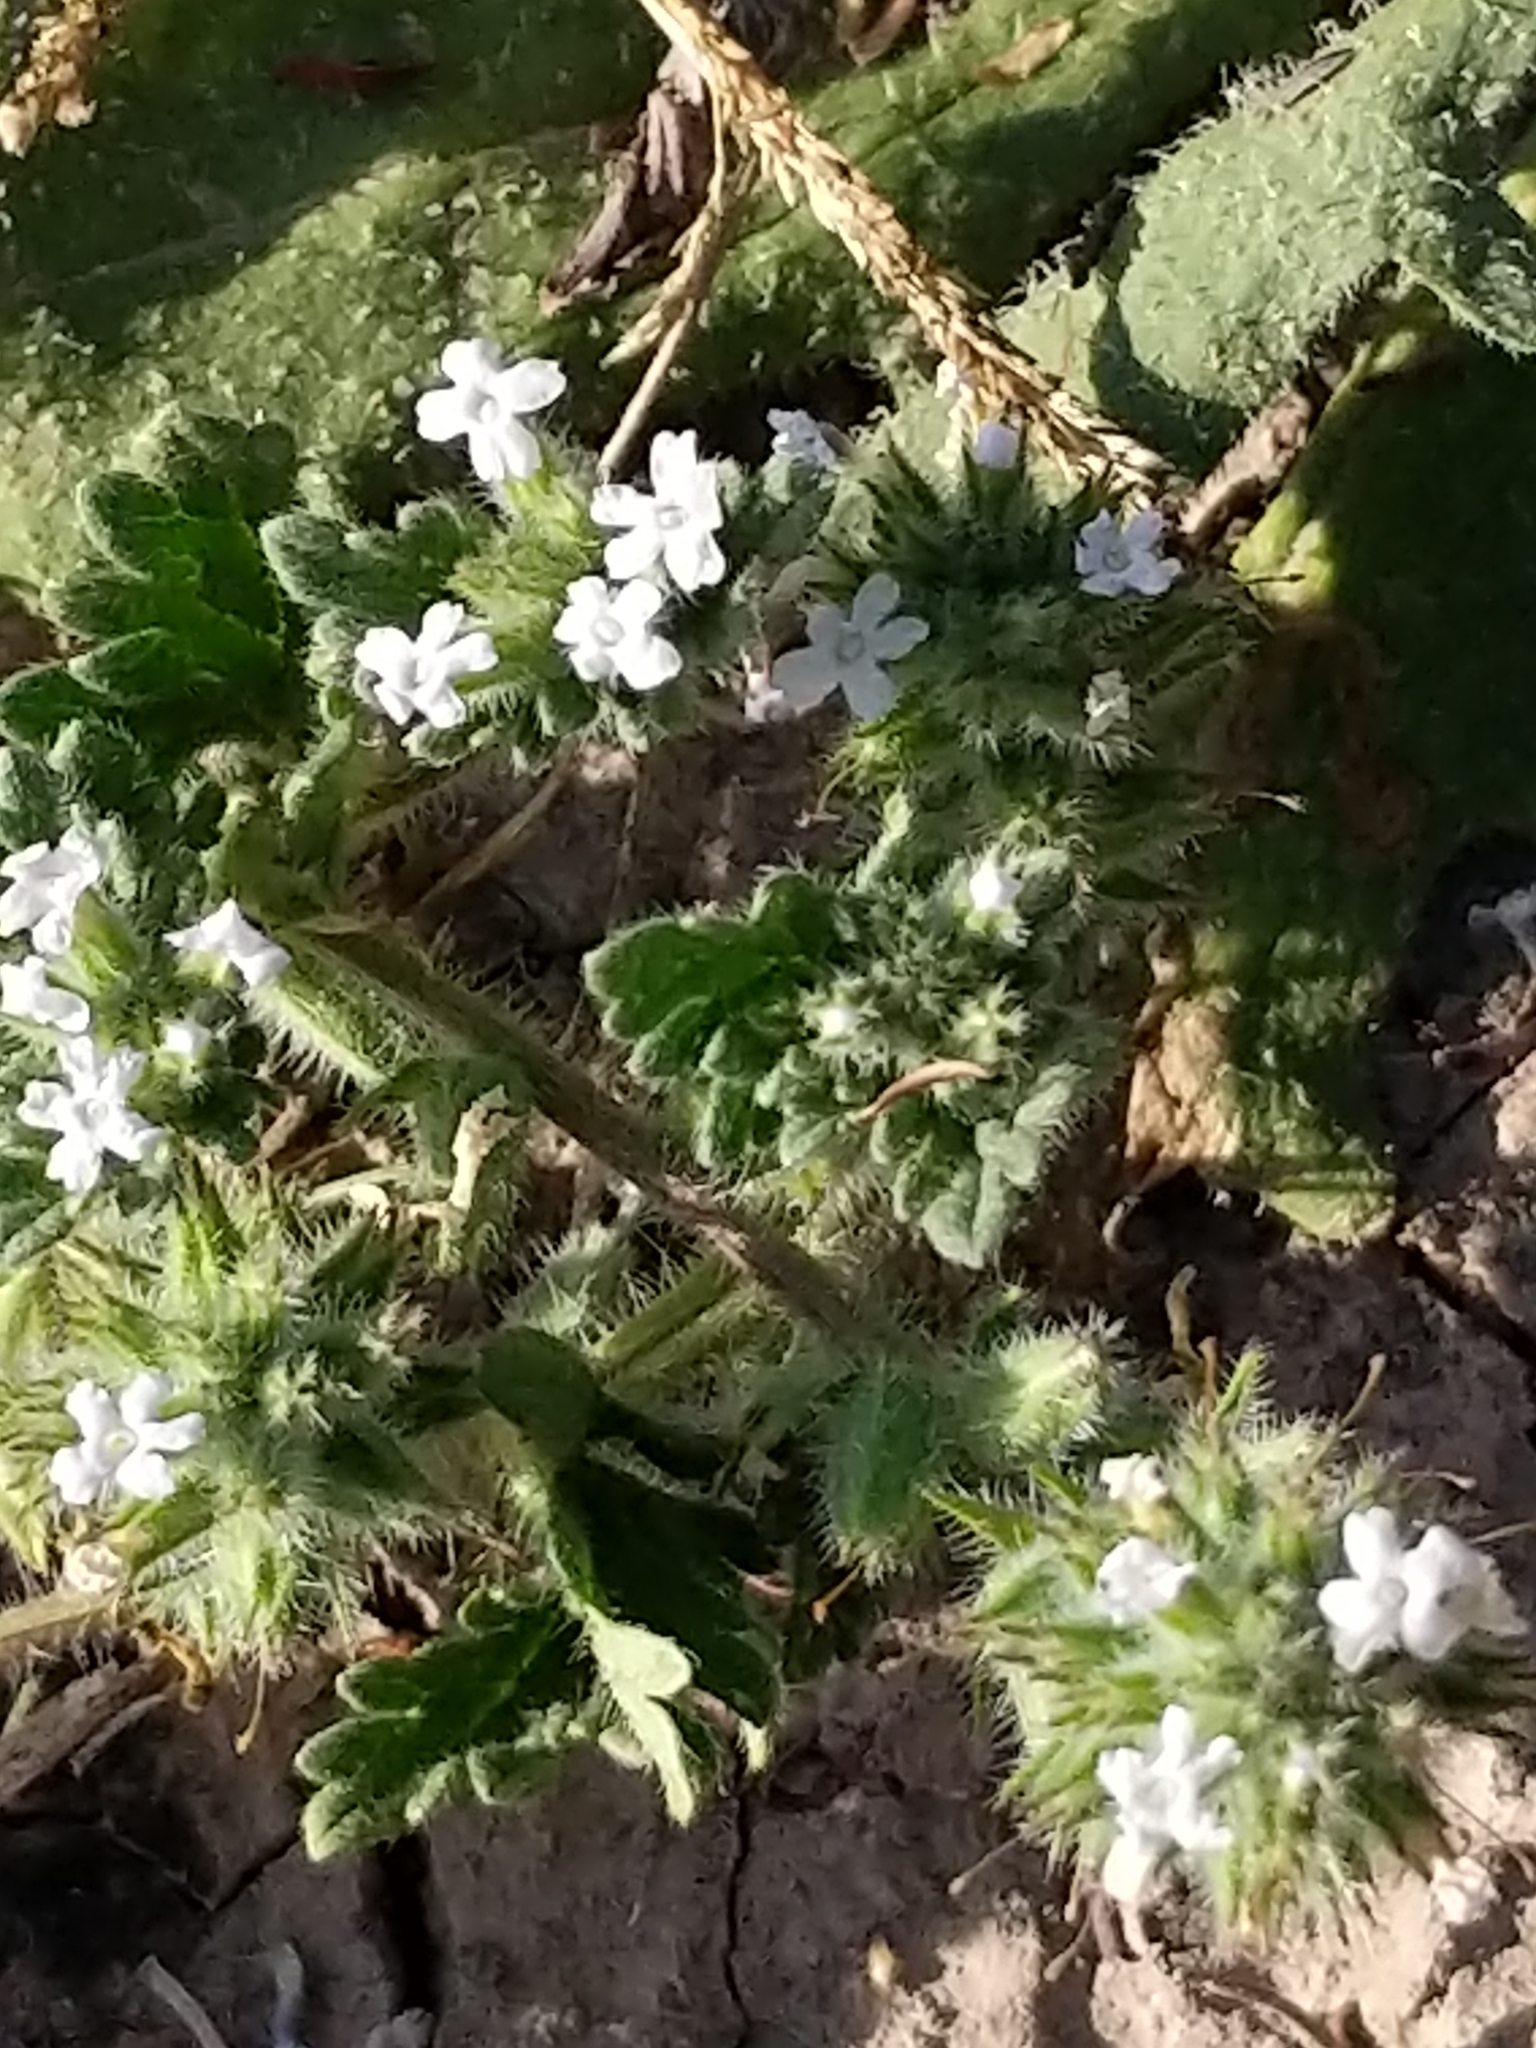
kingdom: Plantae
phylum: Tracheophyta
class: Magnoliopsida
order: Lamiales
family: Verbenaceae
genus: Verbena
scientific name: Verbena quadrangulata
